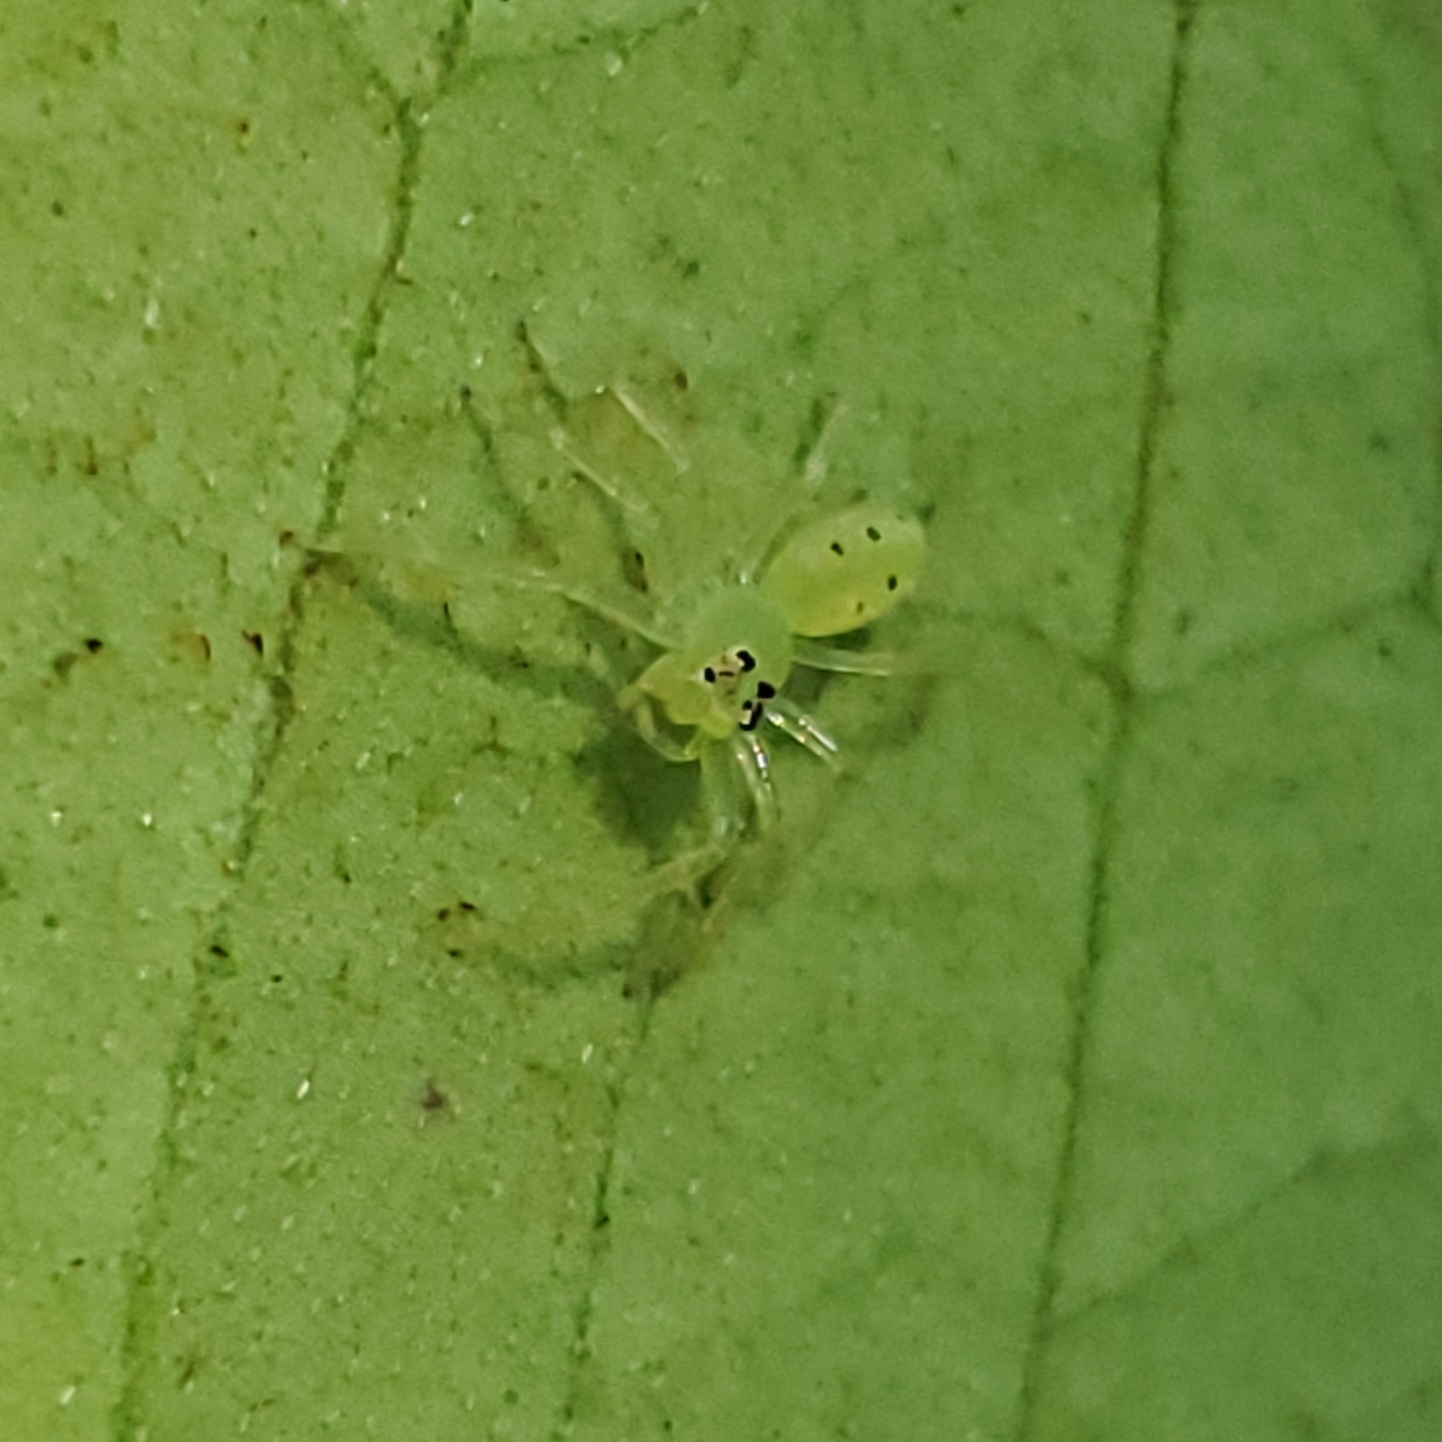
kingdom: Animalia
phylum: Arthropoda
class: Arachnida
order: Araneae
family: Salticidae
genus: Lyssomanes
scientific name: Lyssomanes viridis
